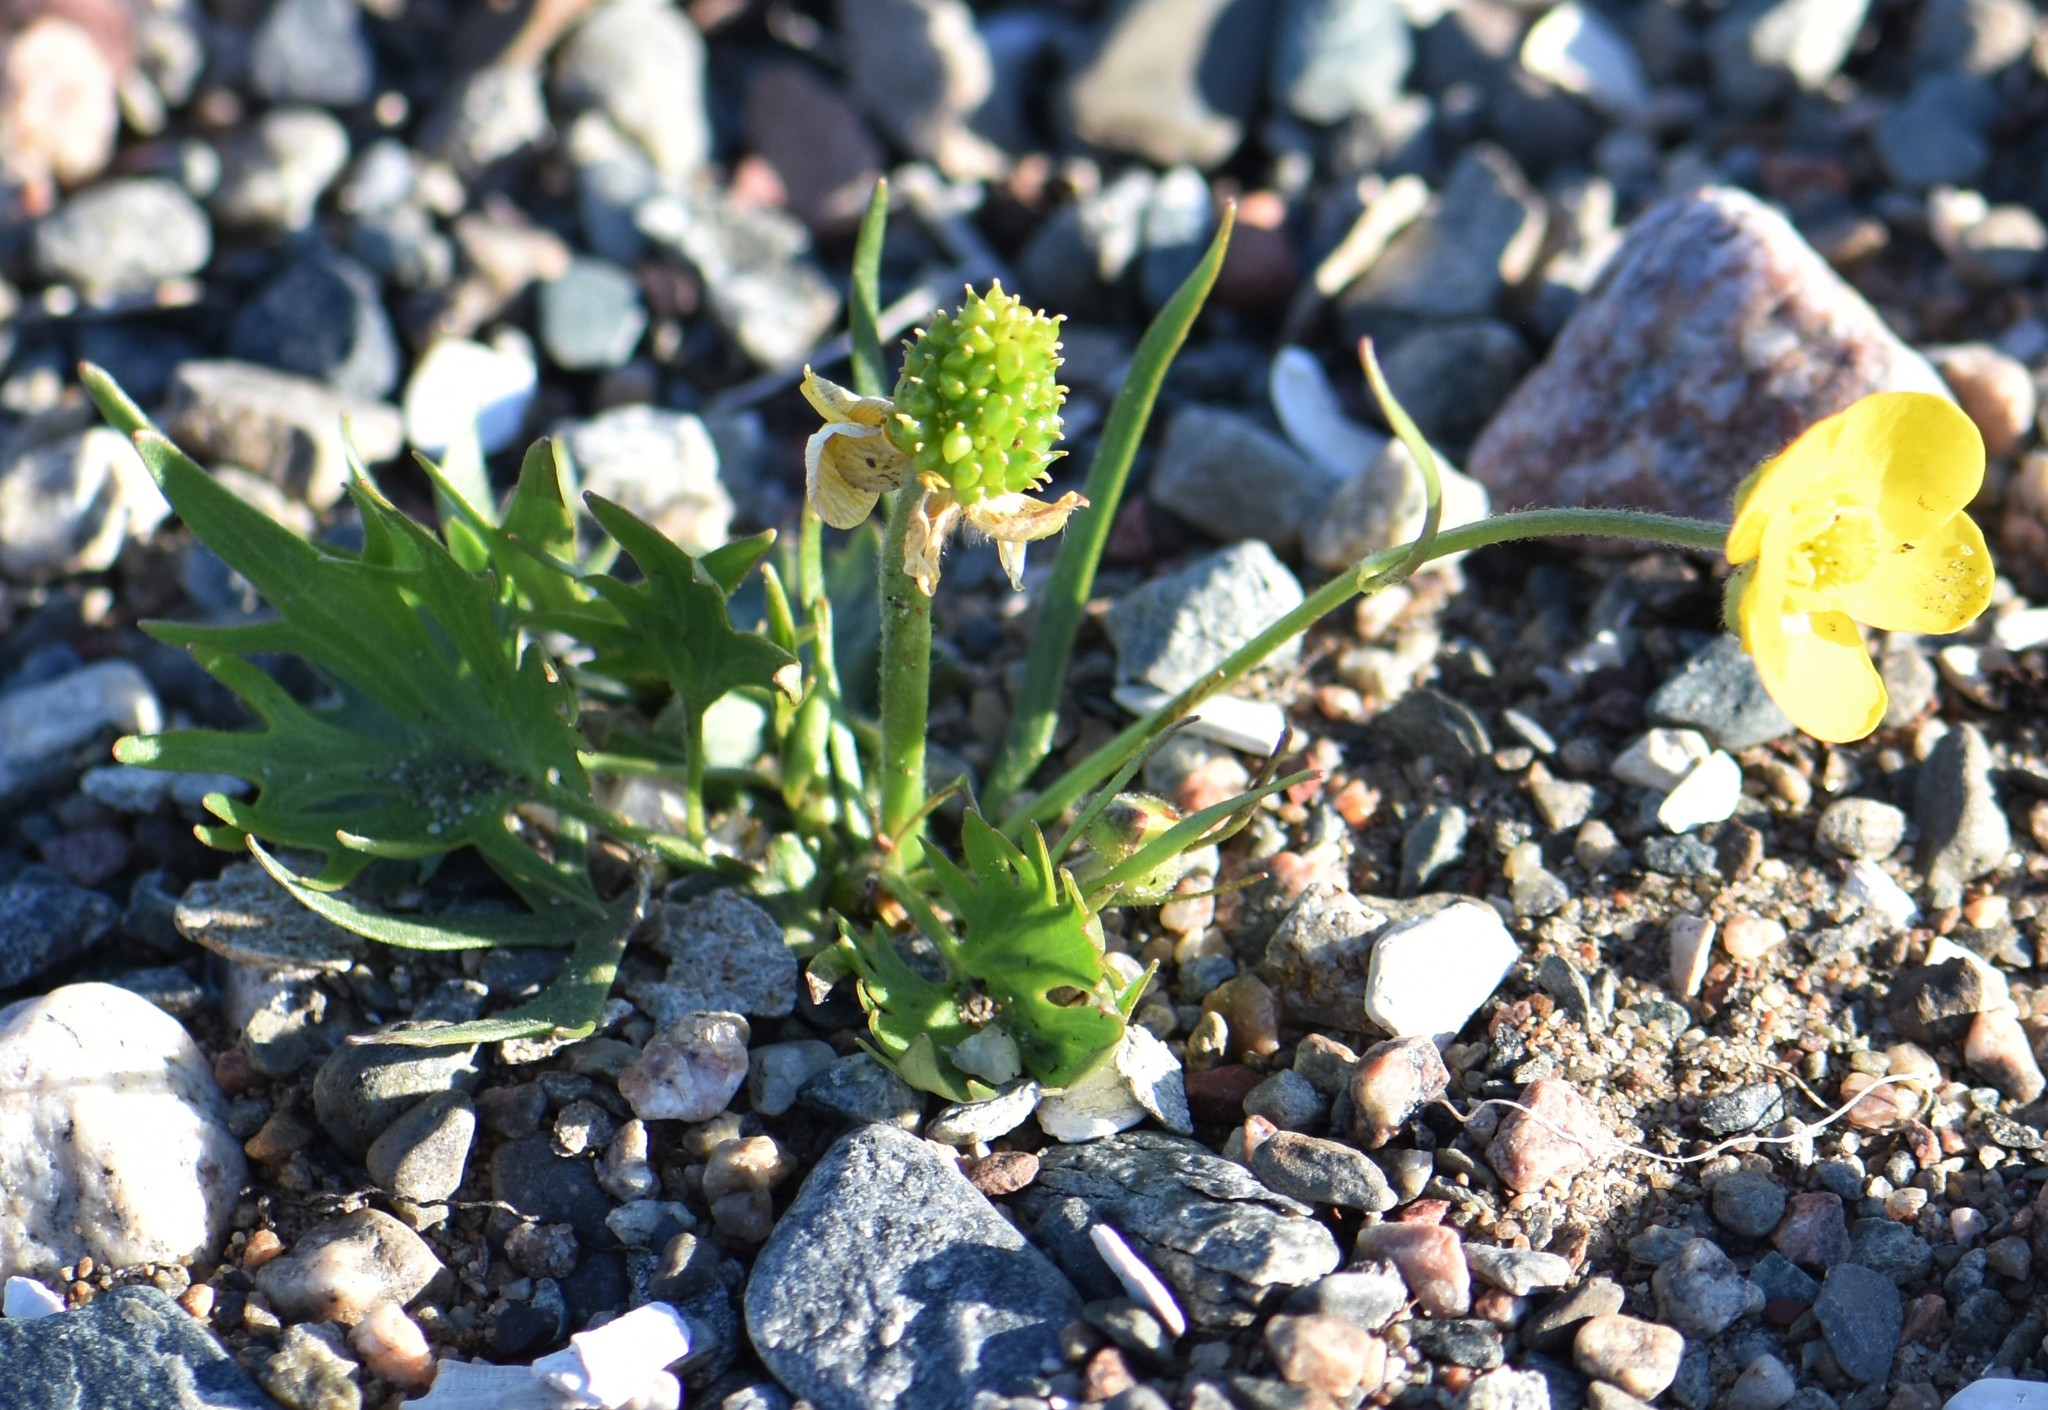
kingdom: Plantae
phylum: Tracheophyta
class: Magnoliopsida
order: Ranunculales
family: Ranunculaceae
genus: Ranunculus
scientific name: Ranunculus arcticus
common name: Bird's-foot buttercup
